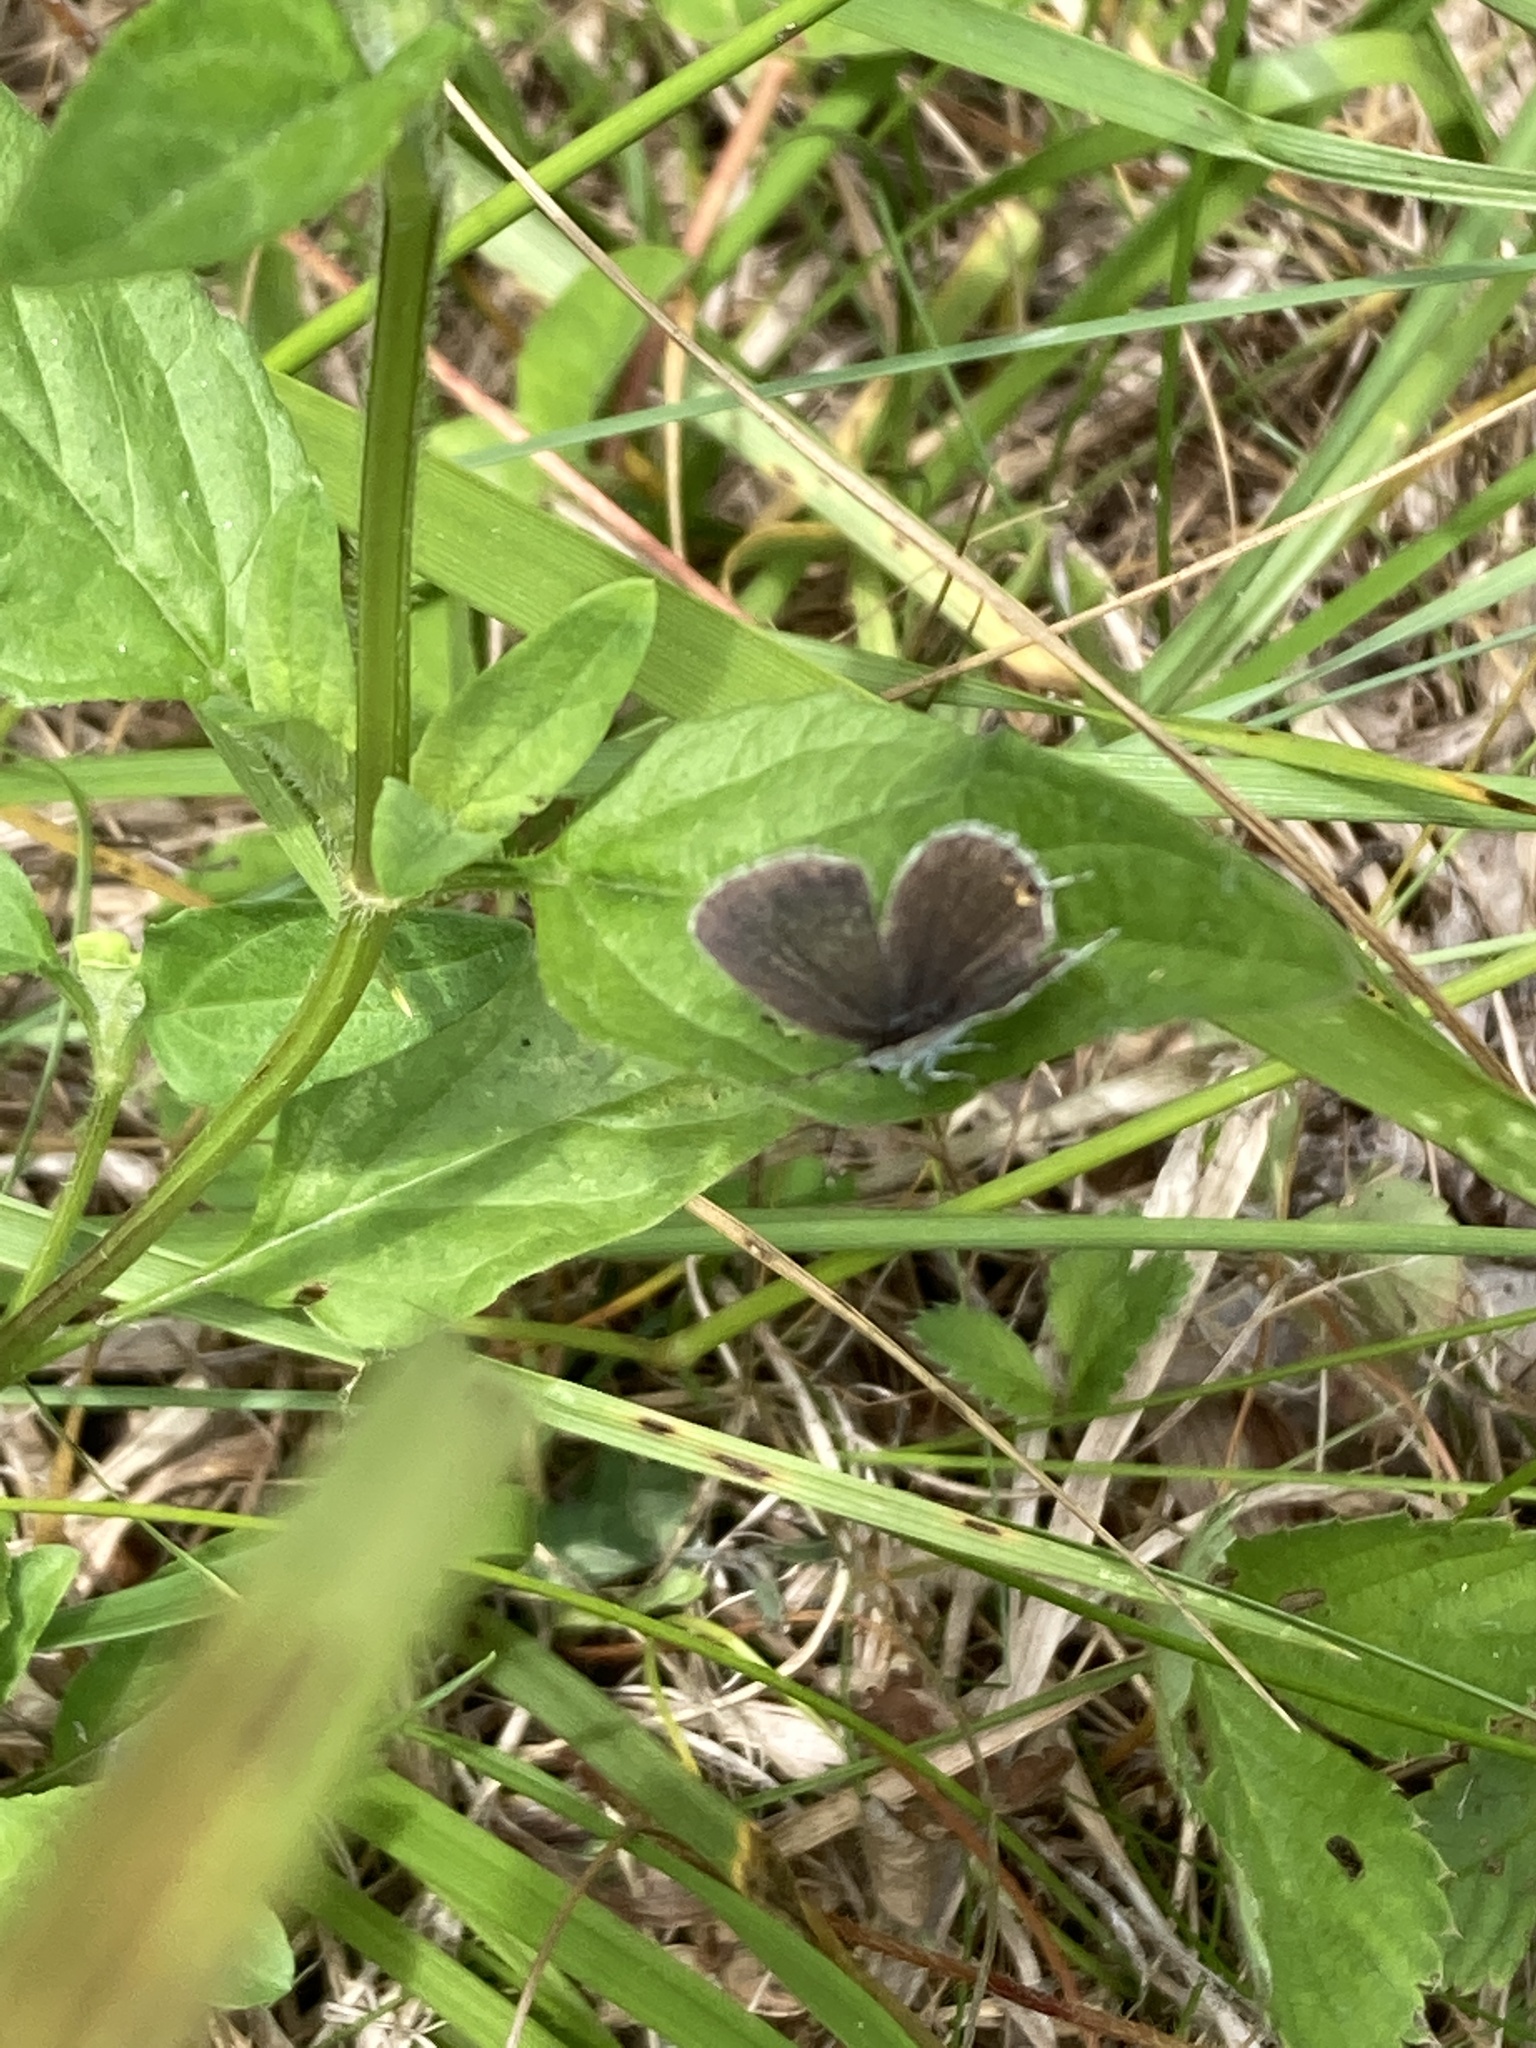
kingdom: Animalia
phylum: Arthropoda
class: Insecta
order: Lepidoptera
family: Lycaenidae
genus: Elkalyce
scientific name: Elkalyce comyntas
